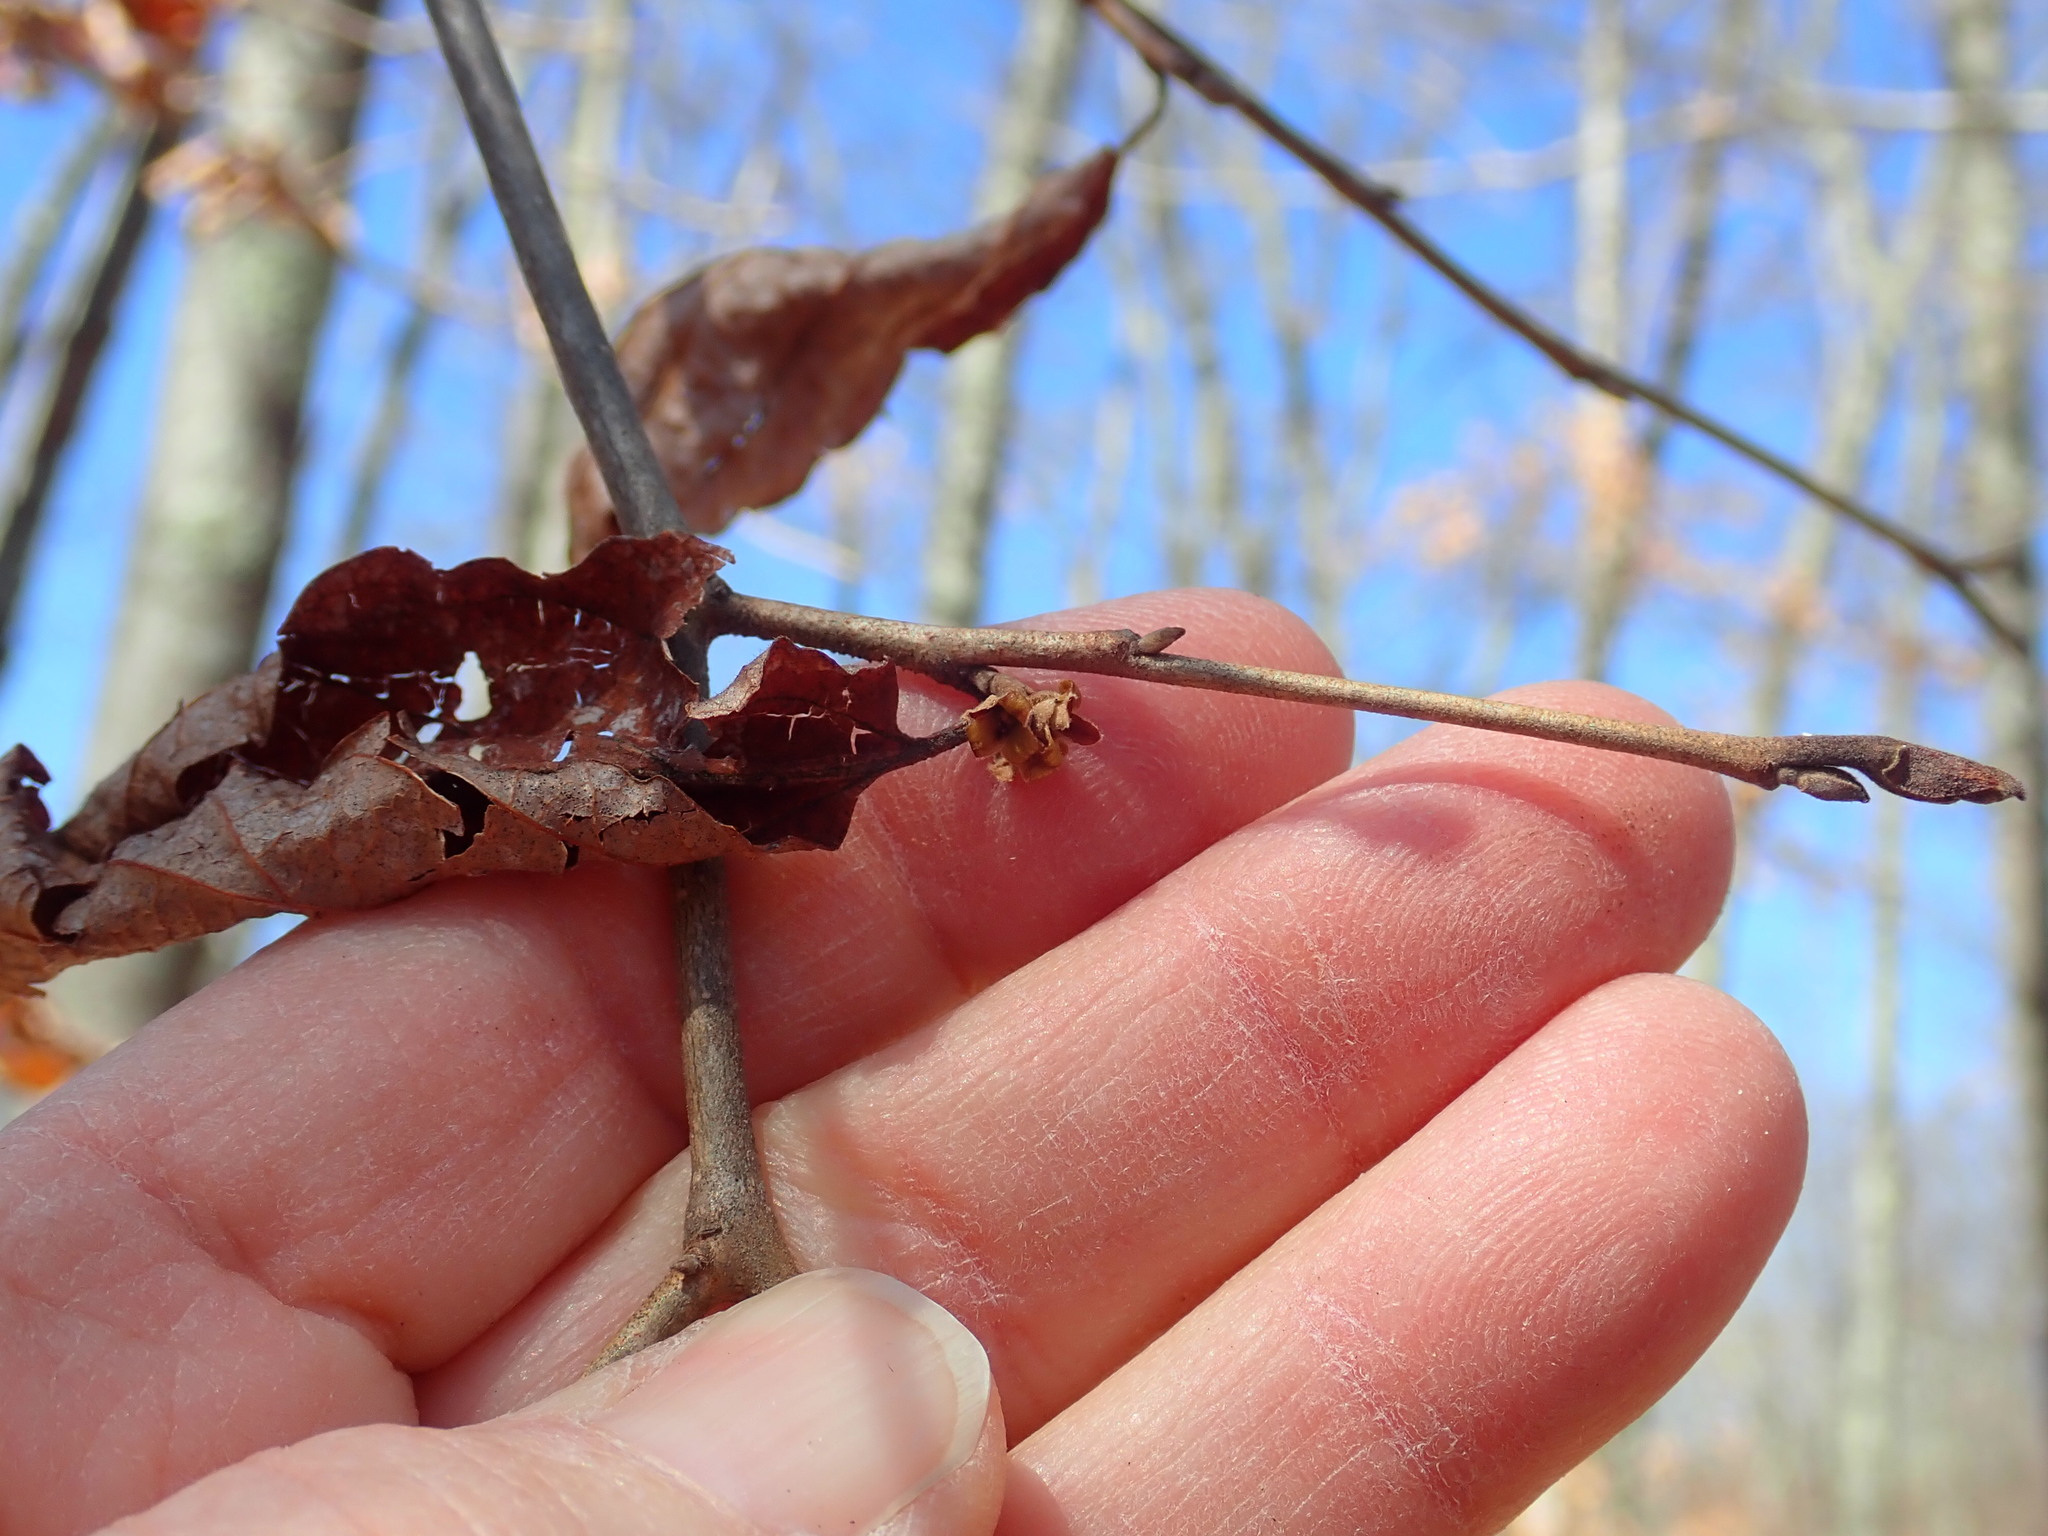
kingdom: Plantae
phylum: Tracheophyta
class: Magnoliopsida
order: Saxifragales
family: Hamamelidaceae
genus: Hamamelis
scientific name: Hamamelis virginiana
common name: Witch-hazel
